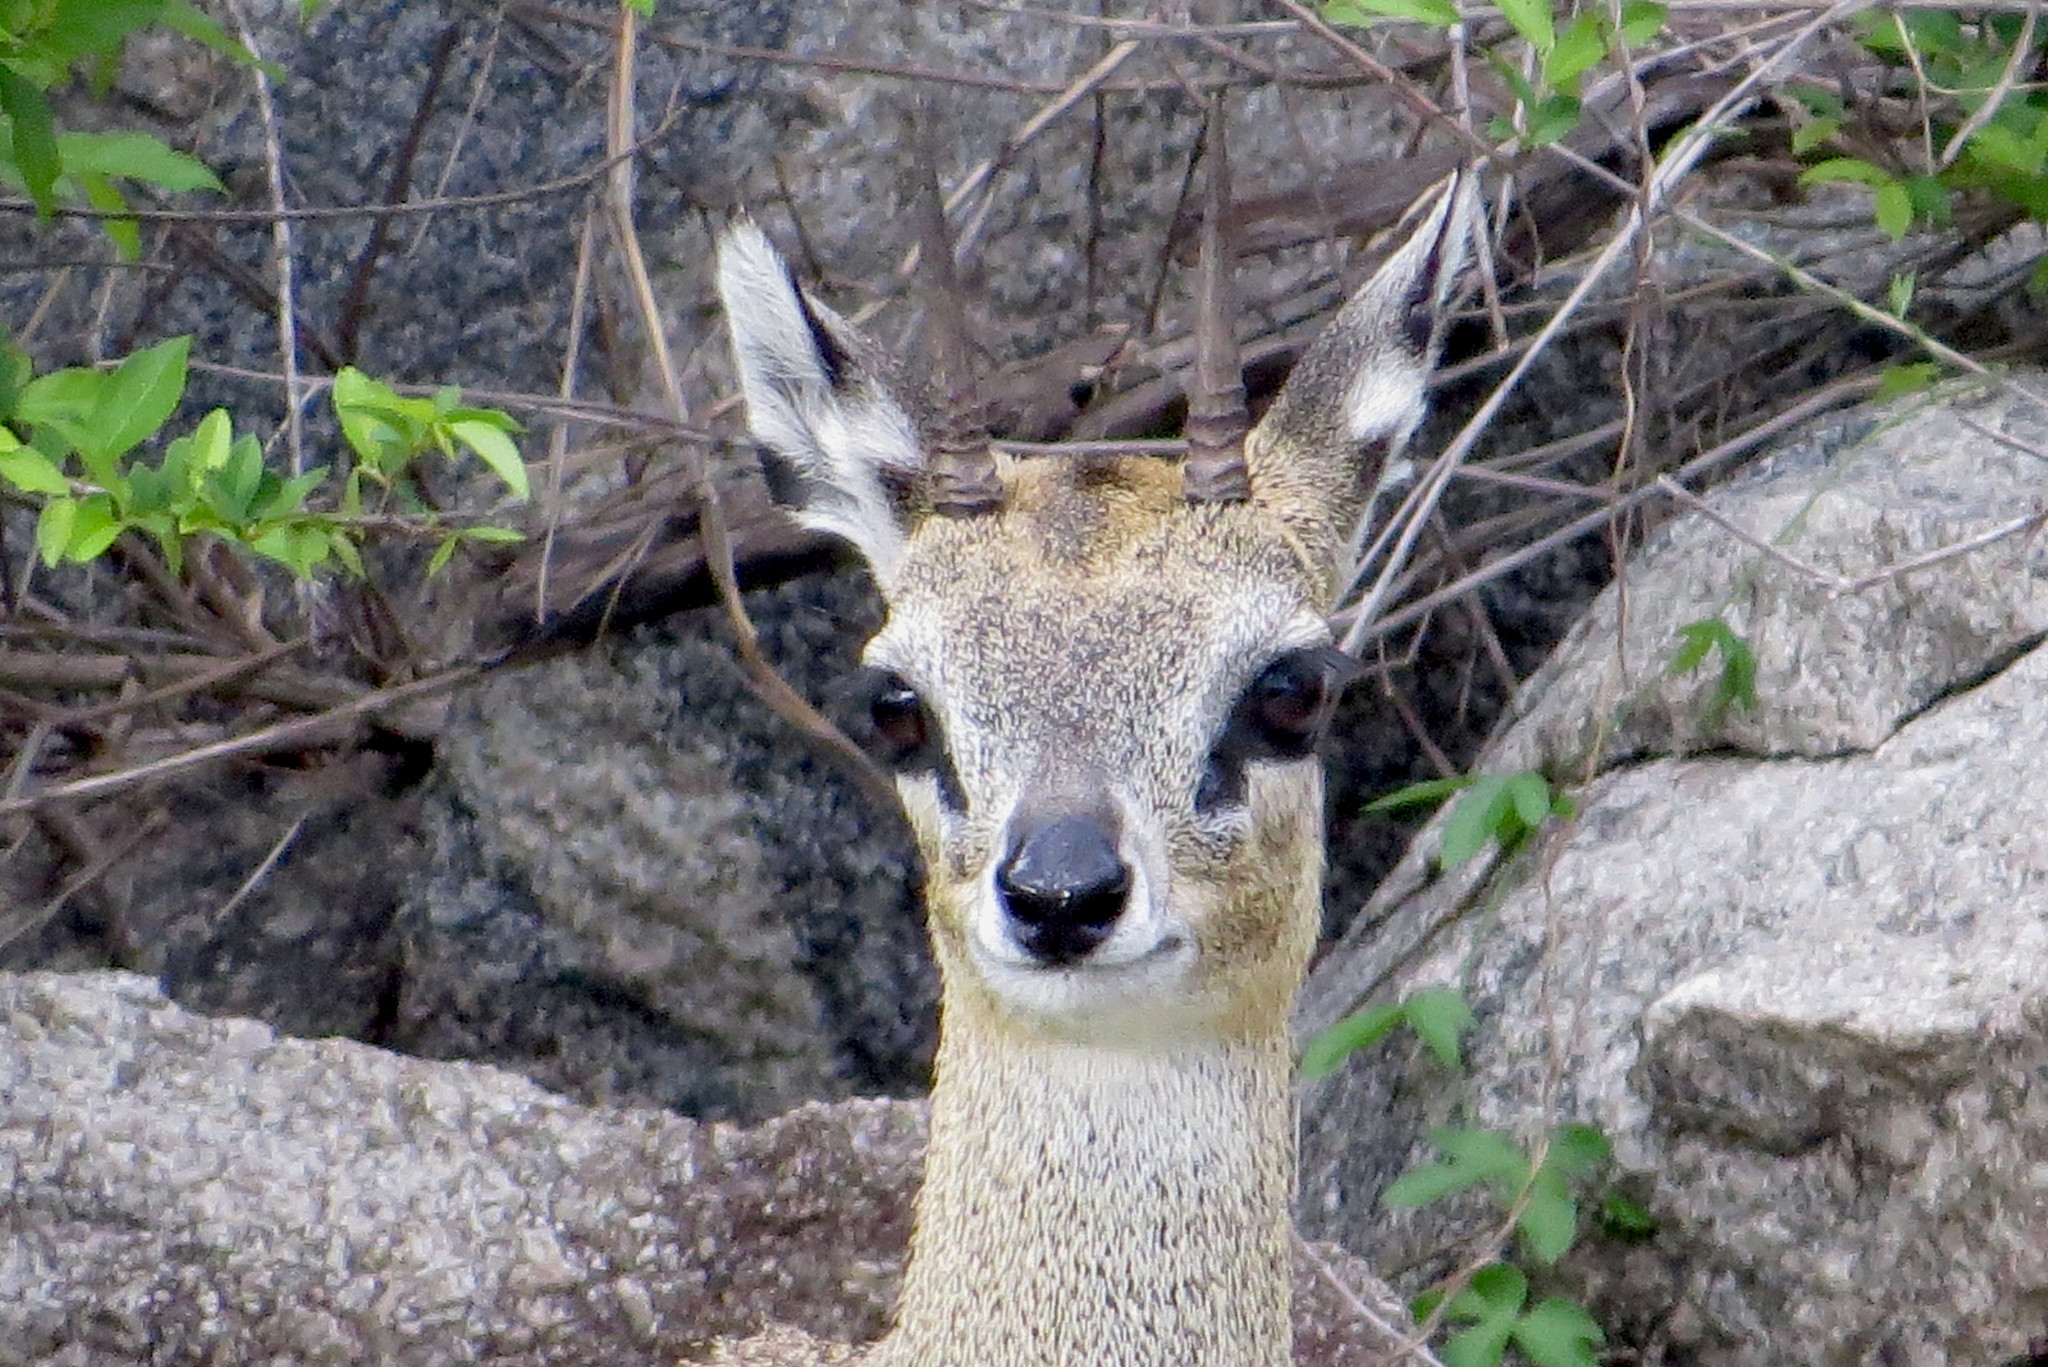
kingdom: Animalia
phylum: Chordata
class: Mammalia
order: Artiodactyla
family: Bovidae
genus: Oreotragus
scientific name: Oreotragus oreotragus
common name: Klipspringer
